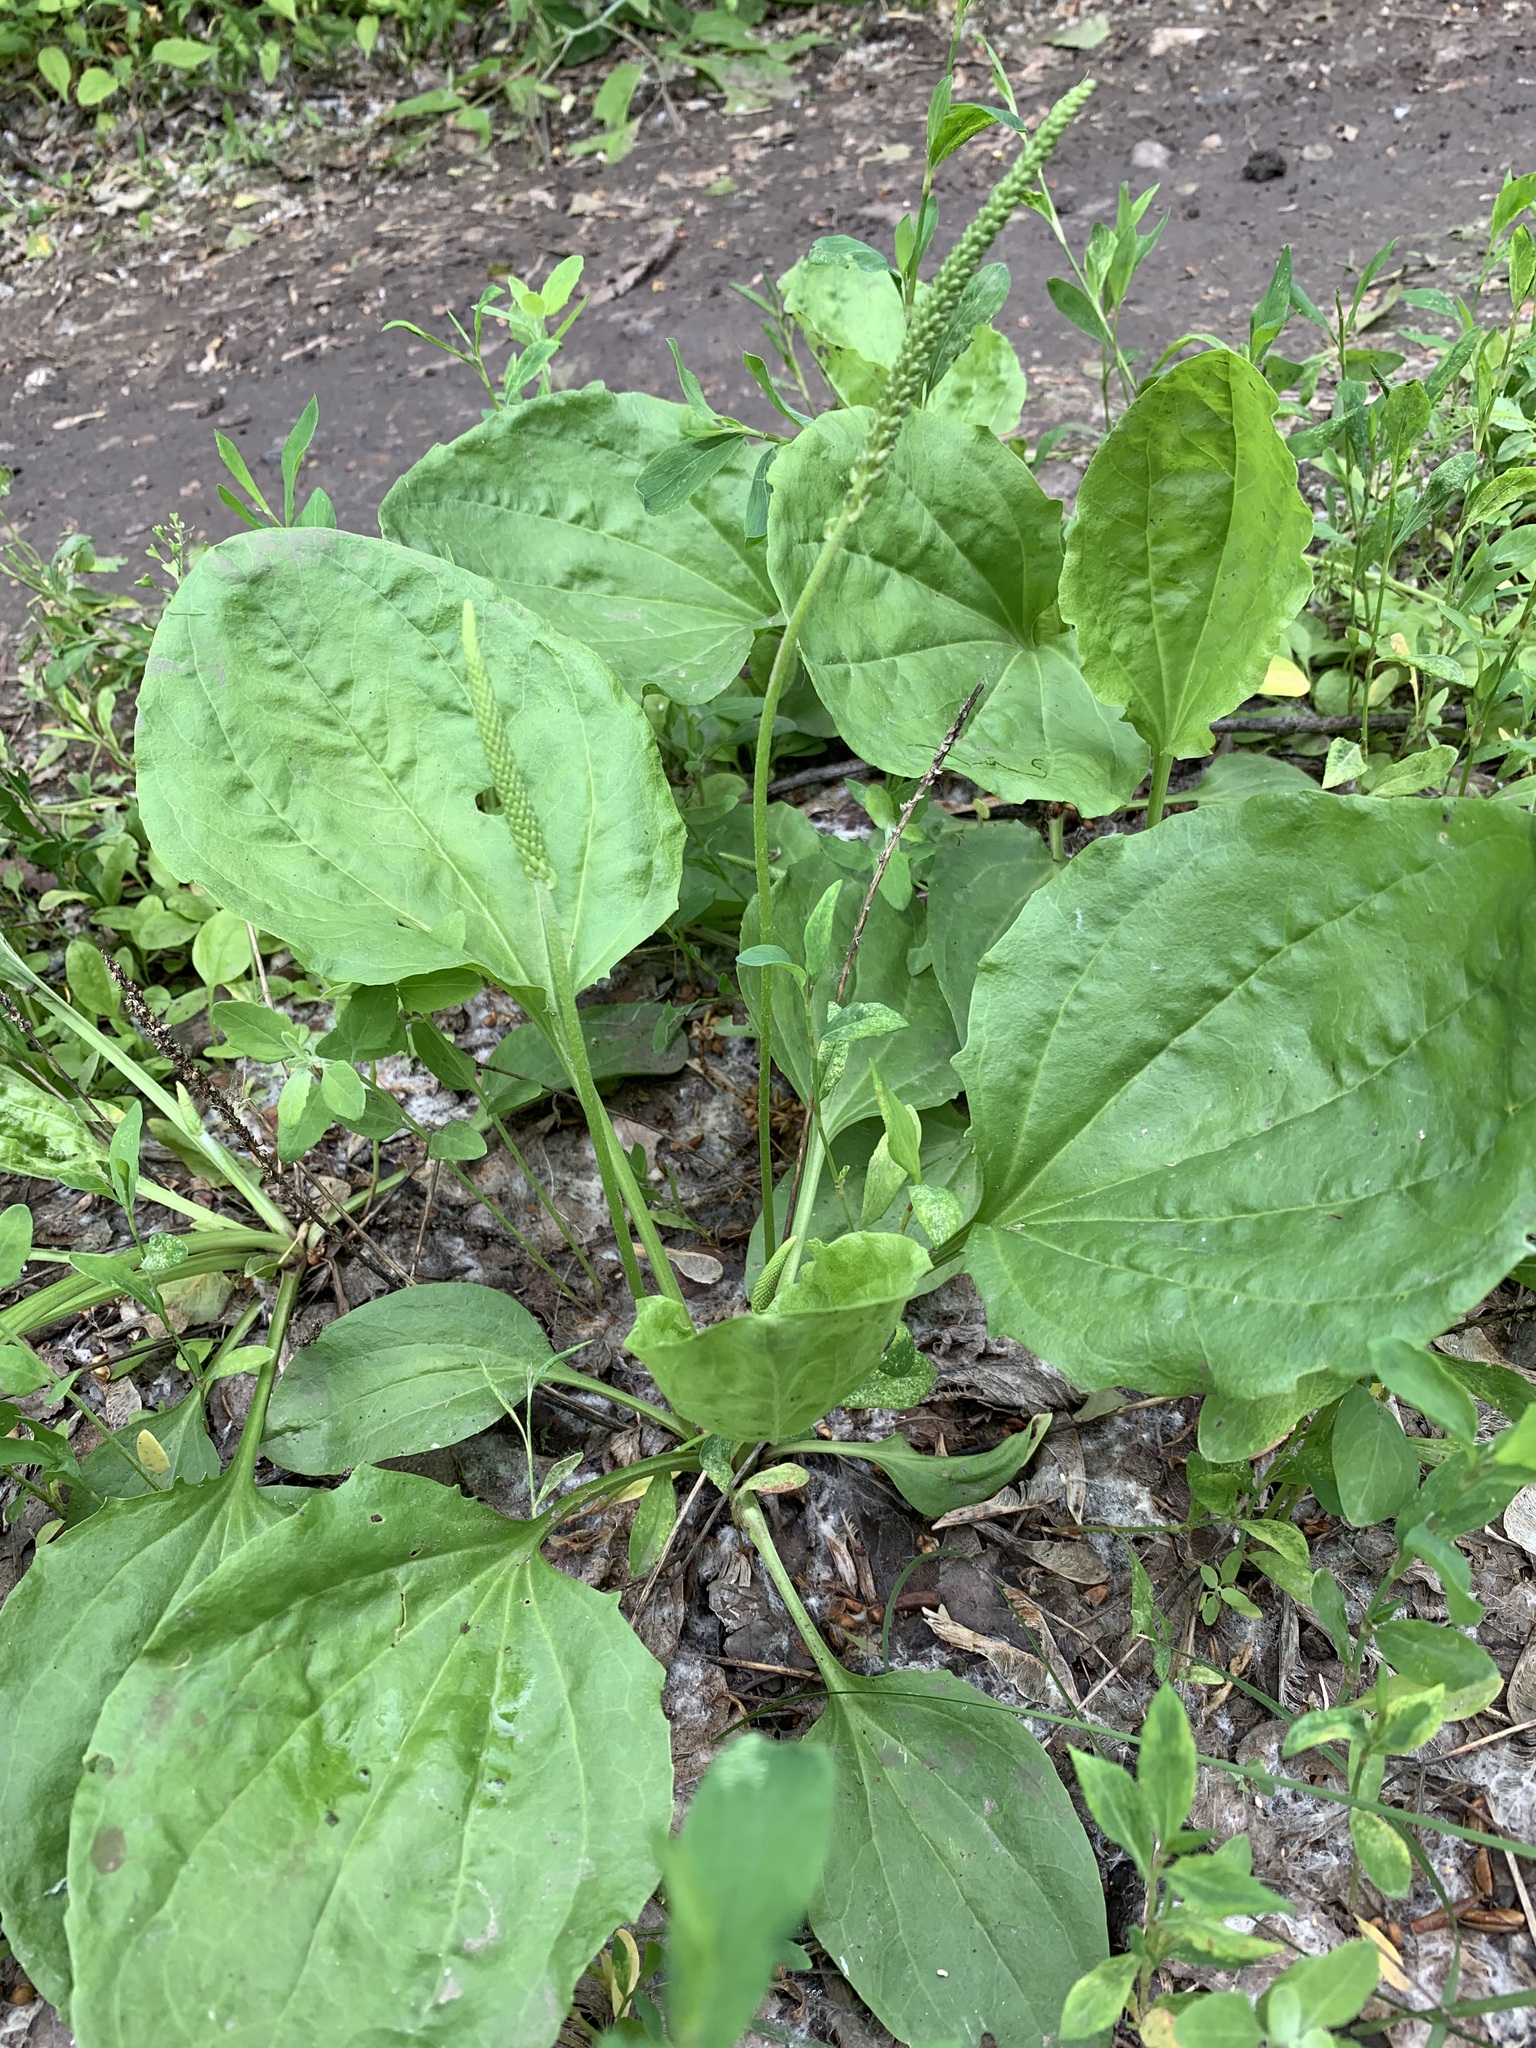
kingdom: Plantae
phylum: Tracheophyta
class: Magnoliopsida
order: Lamiales
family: Plantaginaceae
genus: Plantago
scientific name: Plantago major
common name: Common plantain
